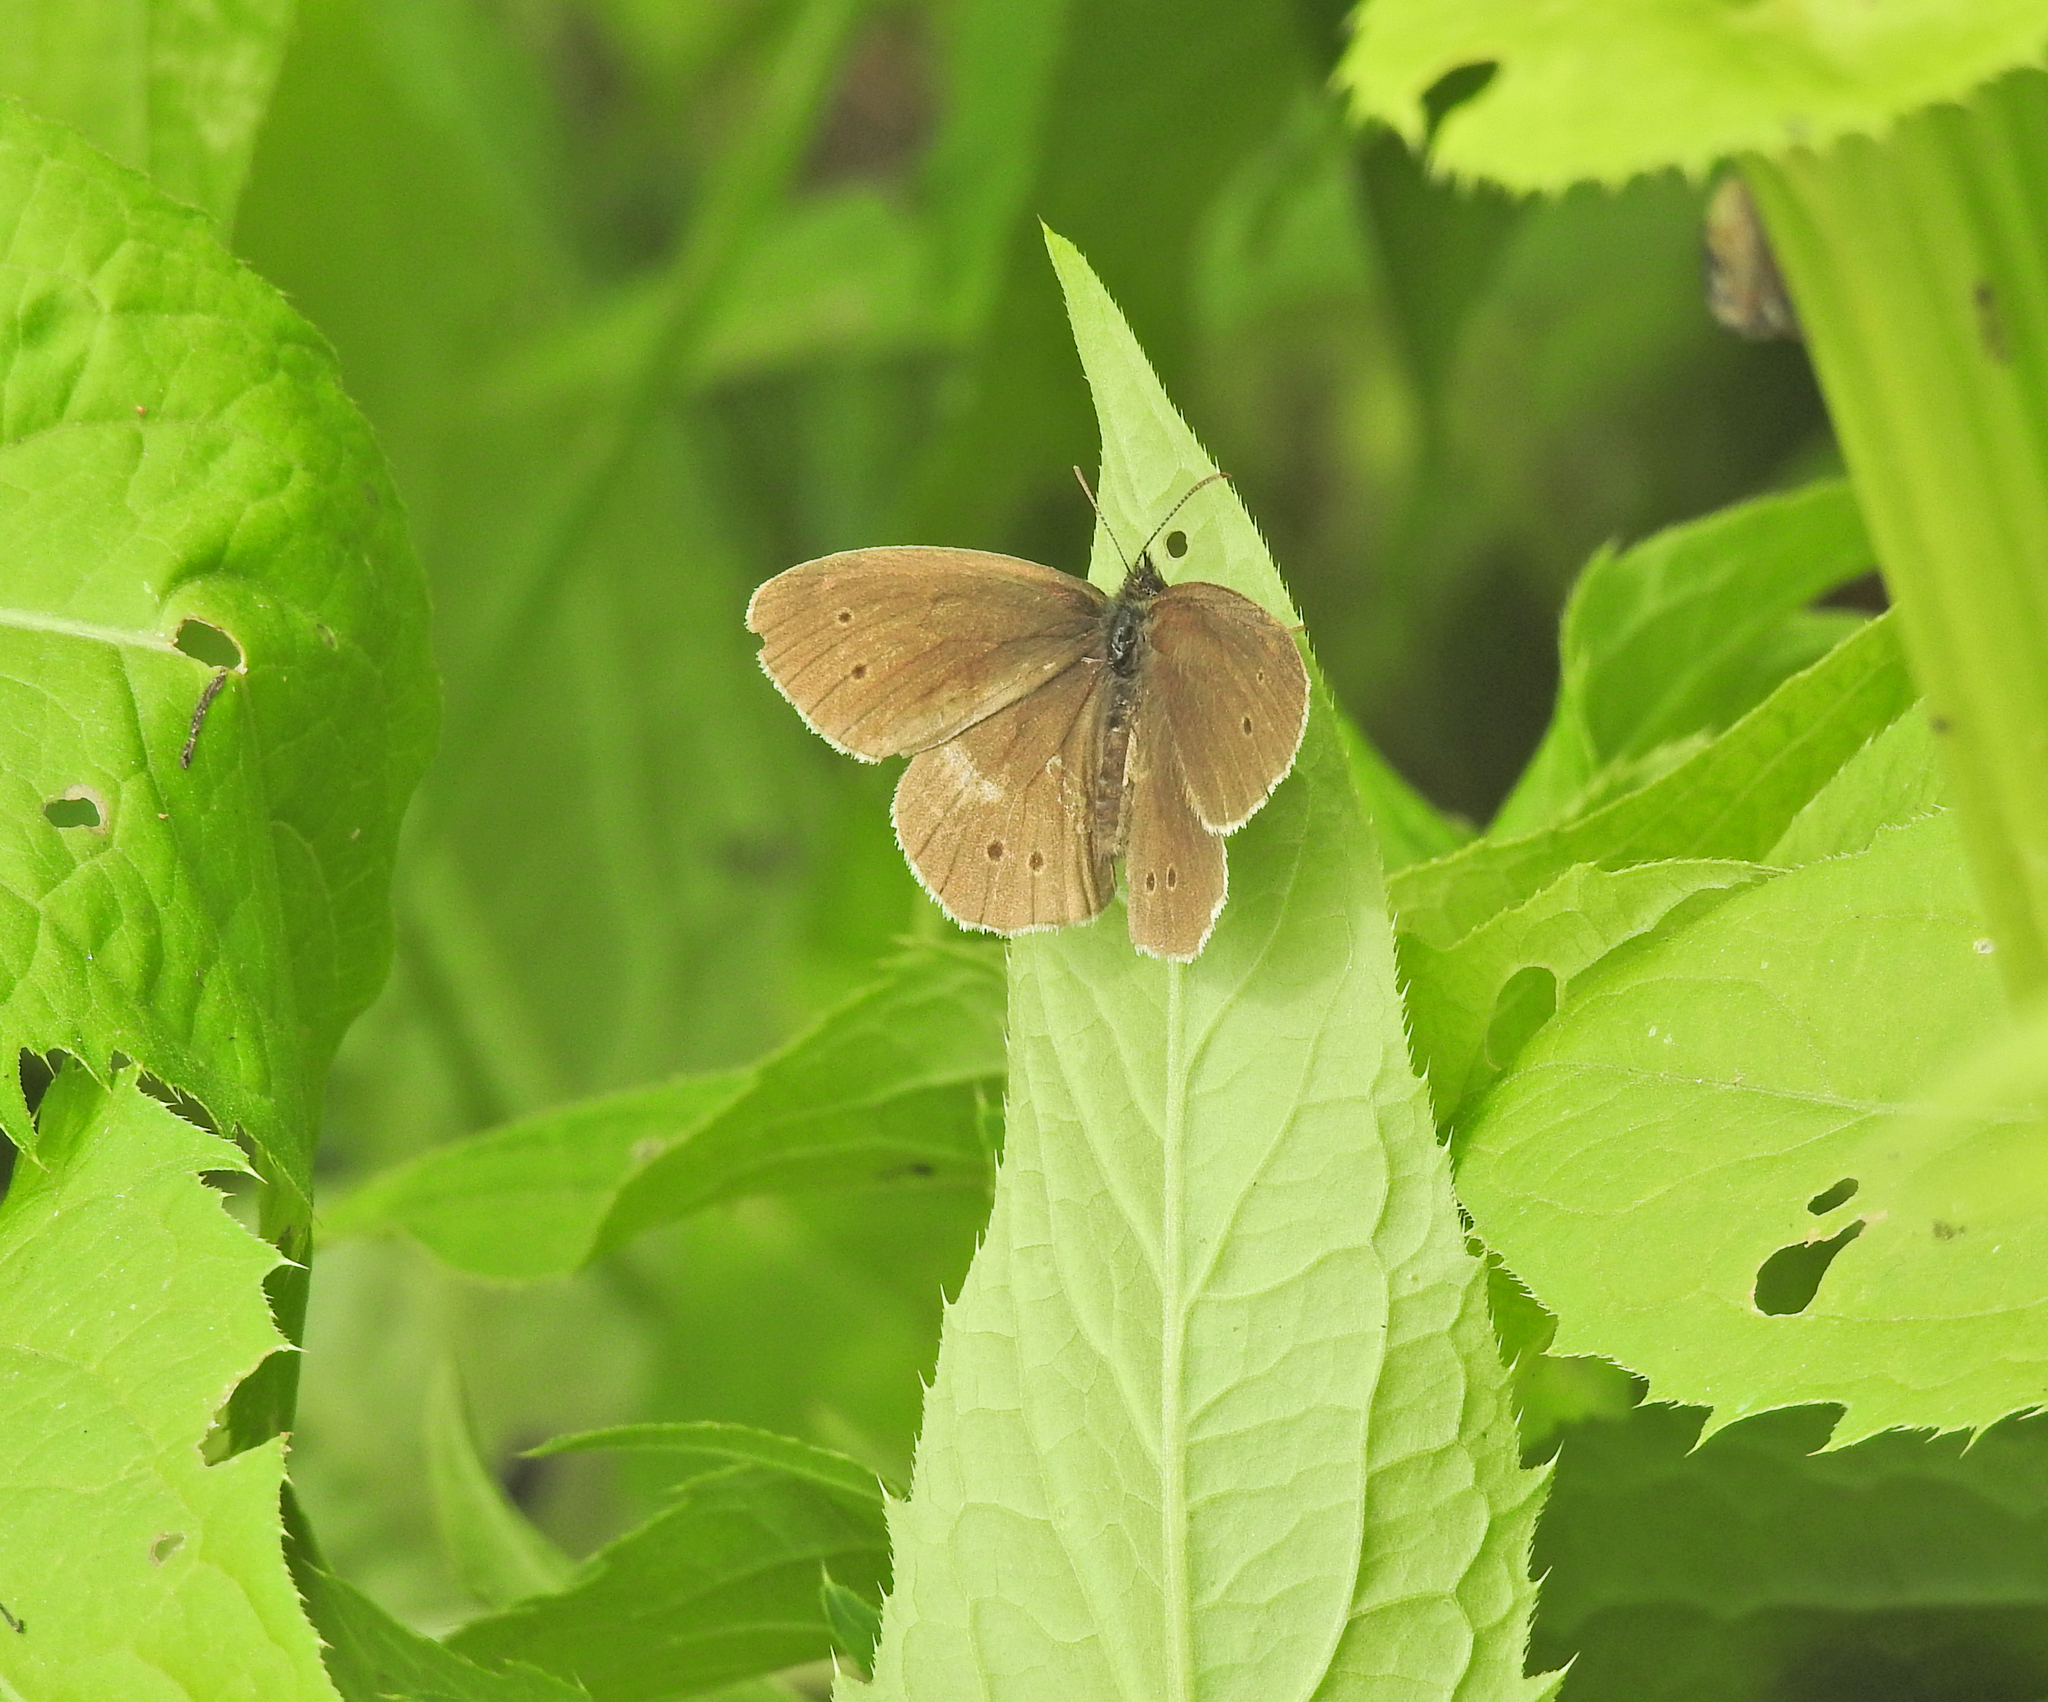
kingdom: Animalia
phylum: Arthropoda
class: Insecta
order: Lepidoptera
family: Nymphalidae
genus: Aphantopus
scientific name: Aphantopus hyperantus
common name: Ringlet
